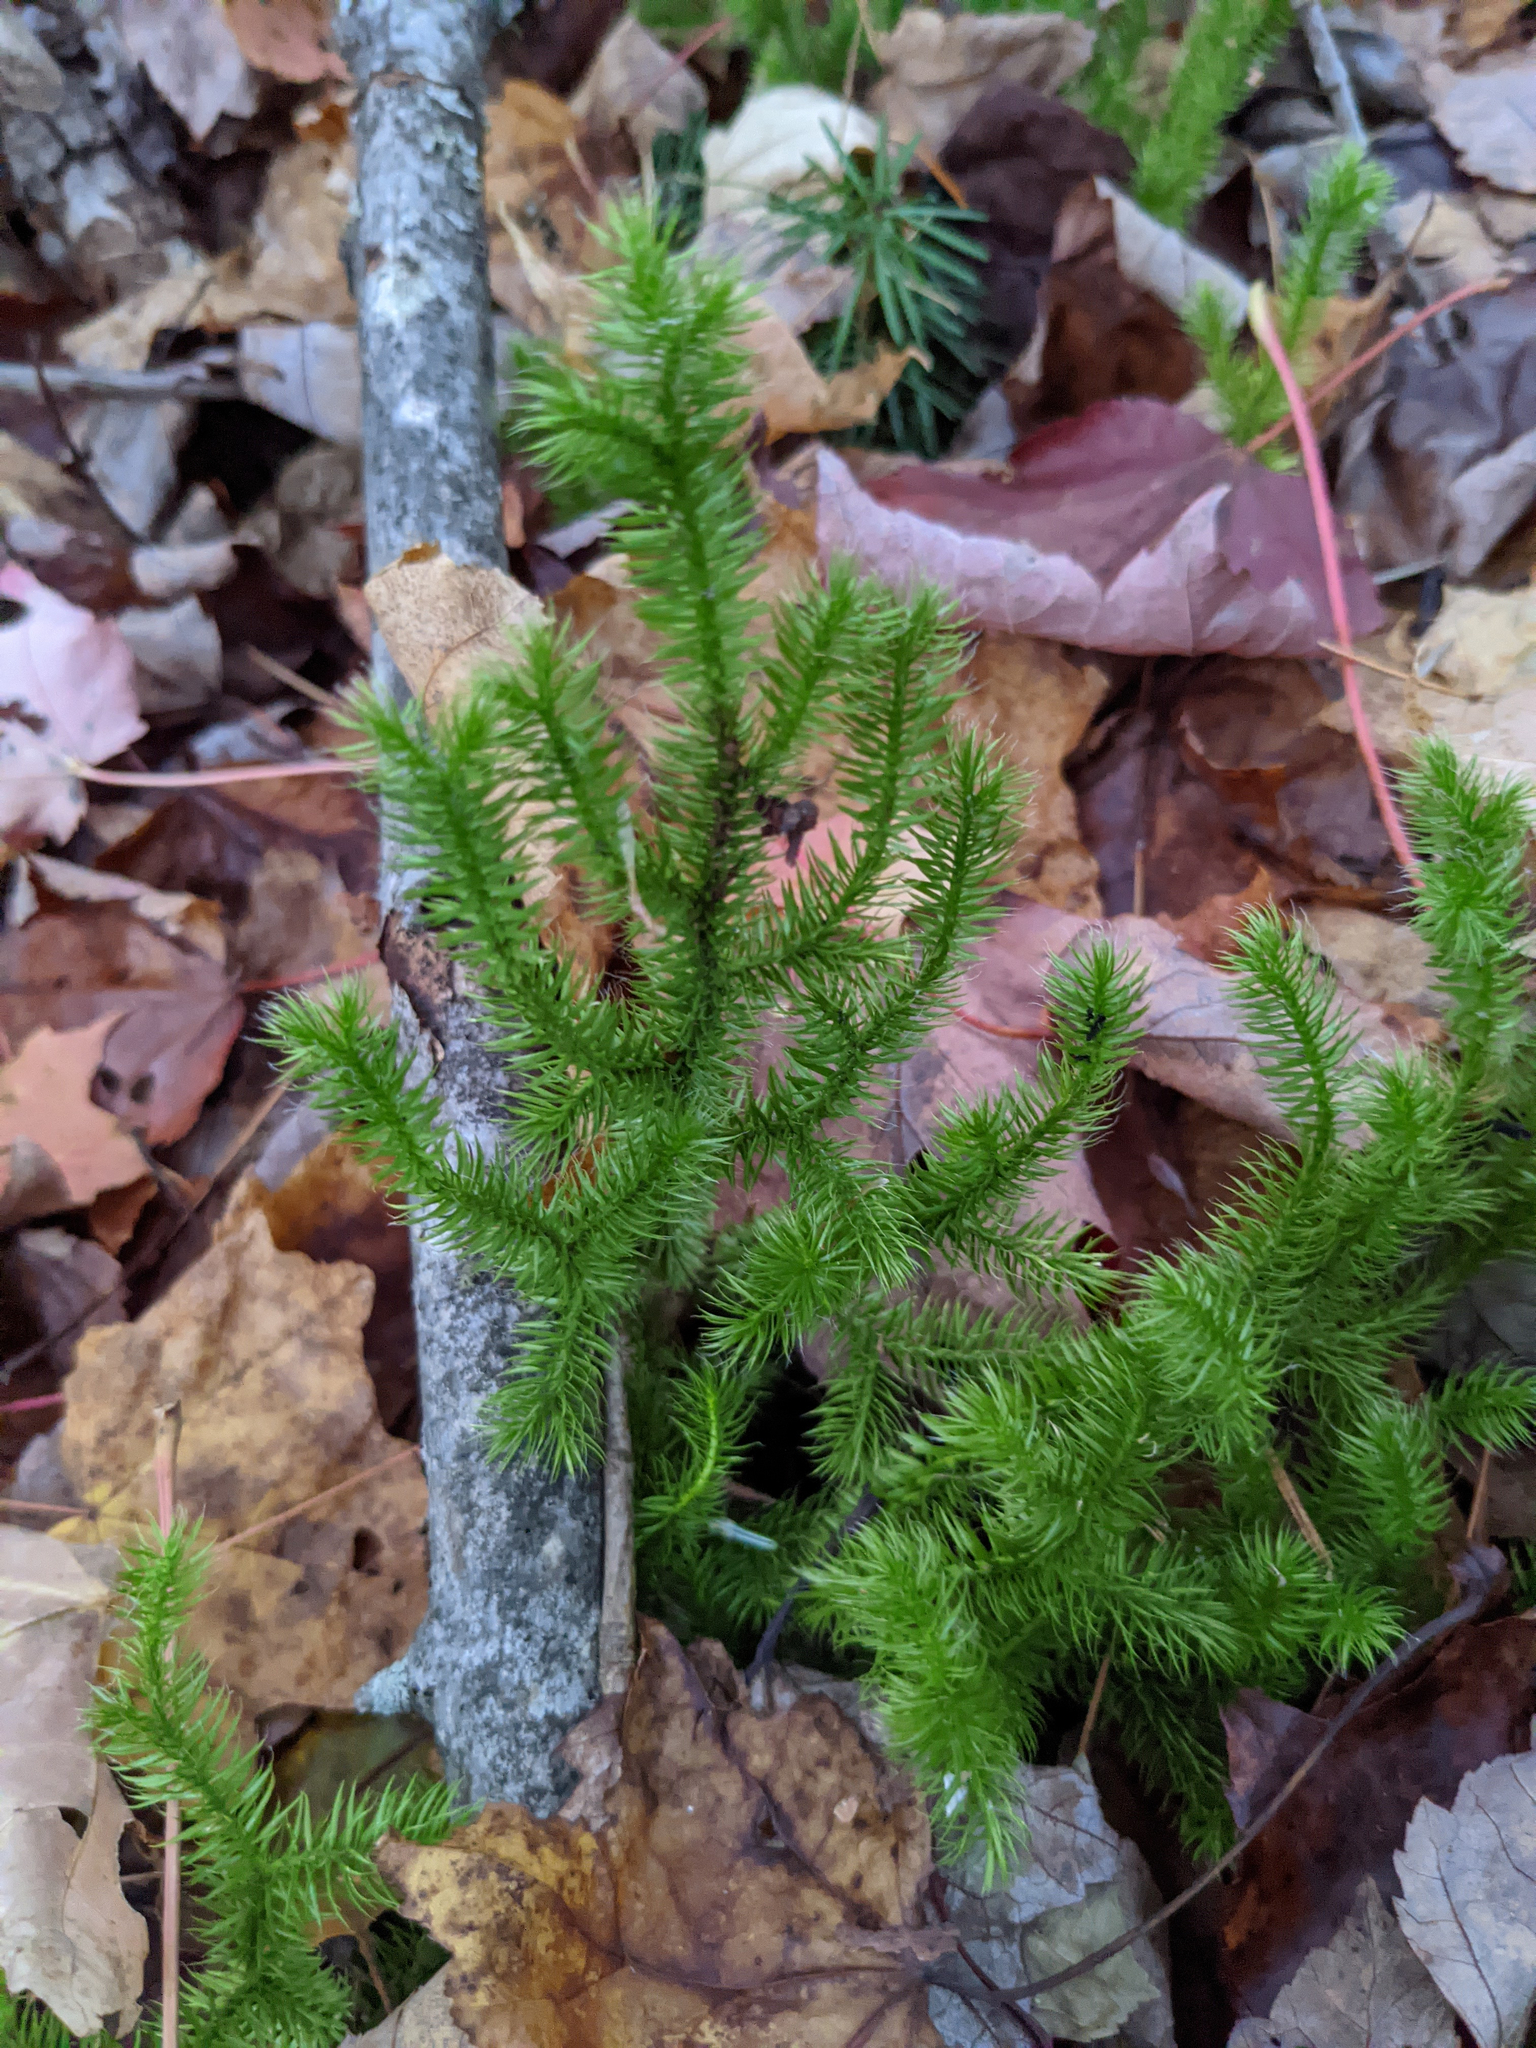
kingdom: Plantae
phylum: Tracheophyta
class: Lycopodiopsida
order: Lycopodiales
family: Lycopodiaceae
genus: Lycopodium
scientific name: Lycopodium clavatum
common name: Stag's-horn clubmoss
